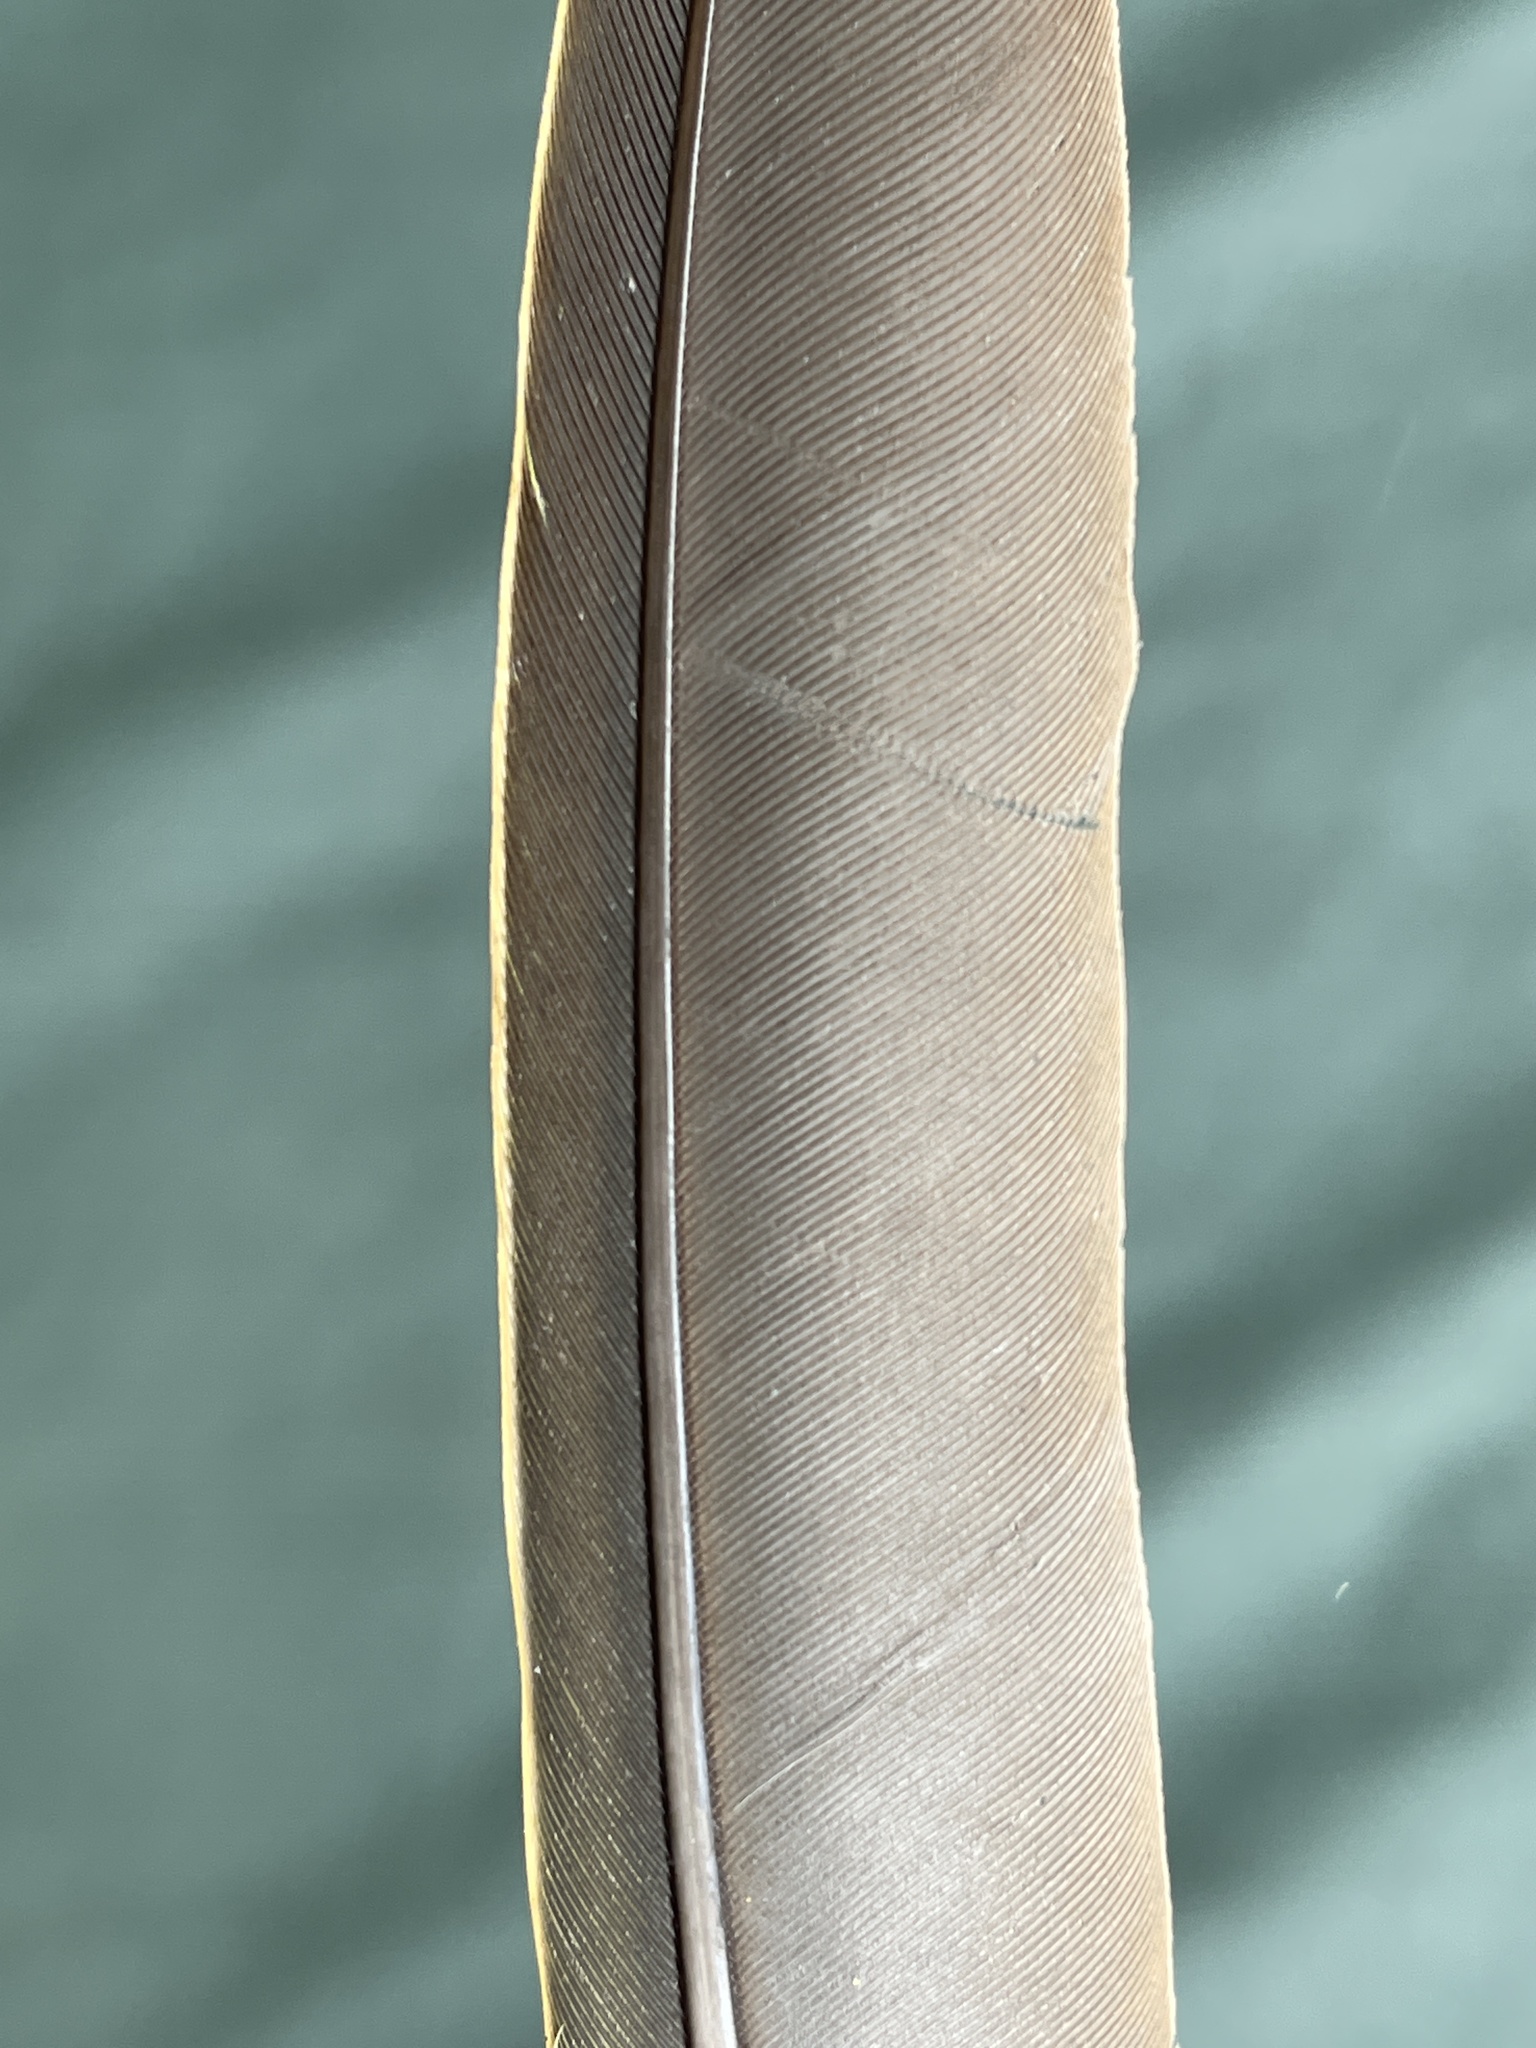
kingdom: Animalia
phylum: Chordata
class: Aves
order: Columbiformes
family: Columbidae
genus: Treron
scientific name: Treron calvus
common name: African green pigeon
